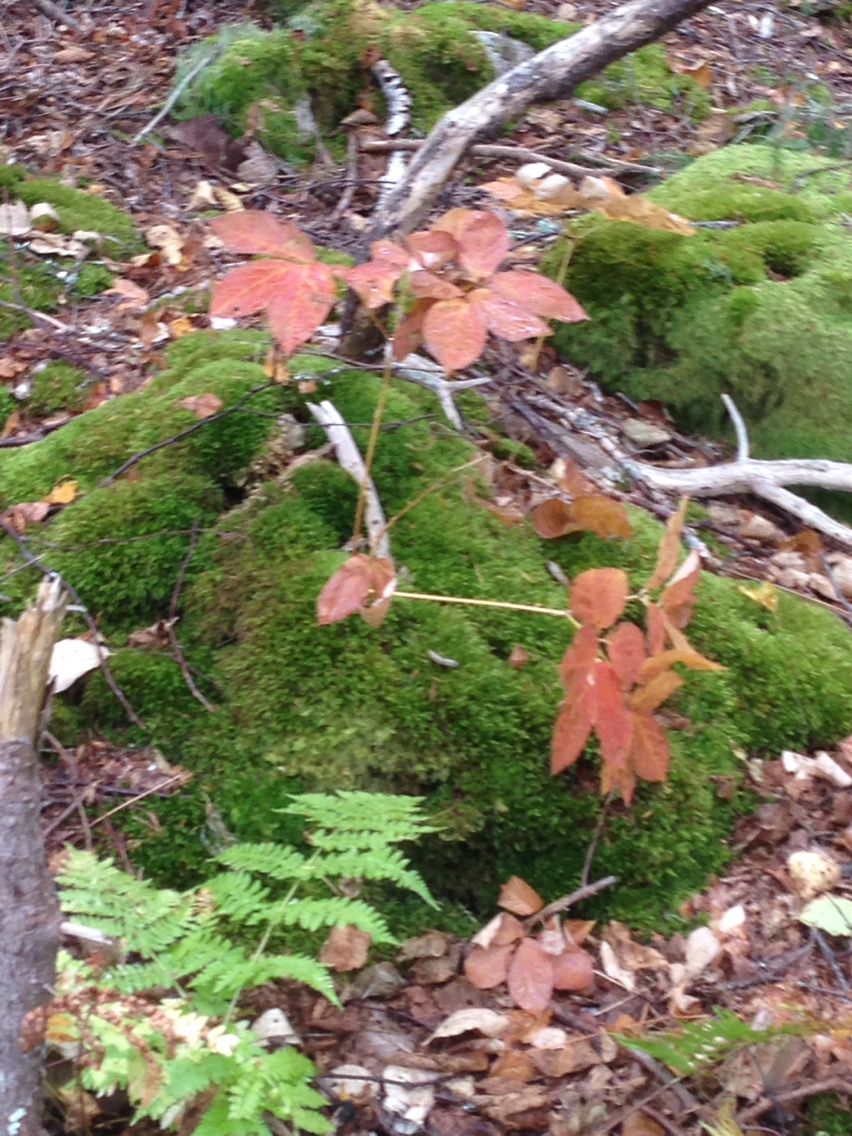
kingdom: Plantae
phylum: Tracheophyta
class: Magnoliopsida
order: Apiales
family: Araliaceae
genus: Aralia
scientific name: Aralia nudicaulis
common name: Wild sarsaparilla
